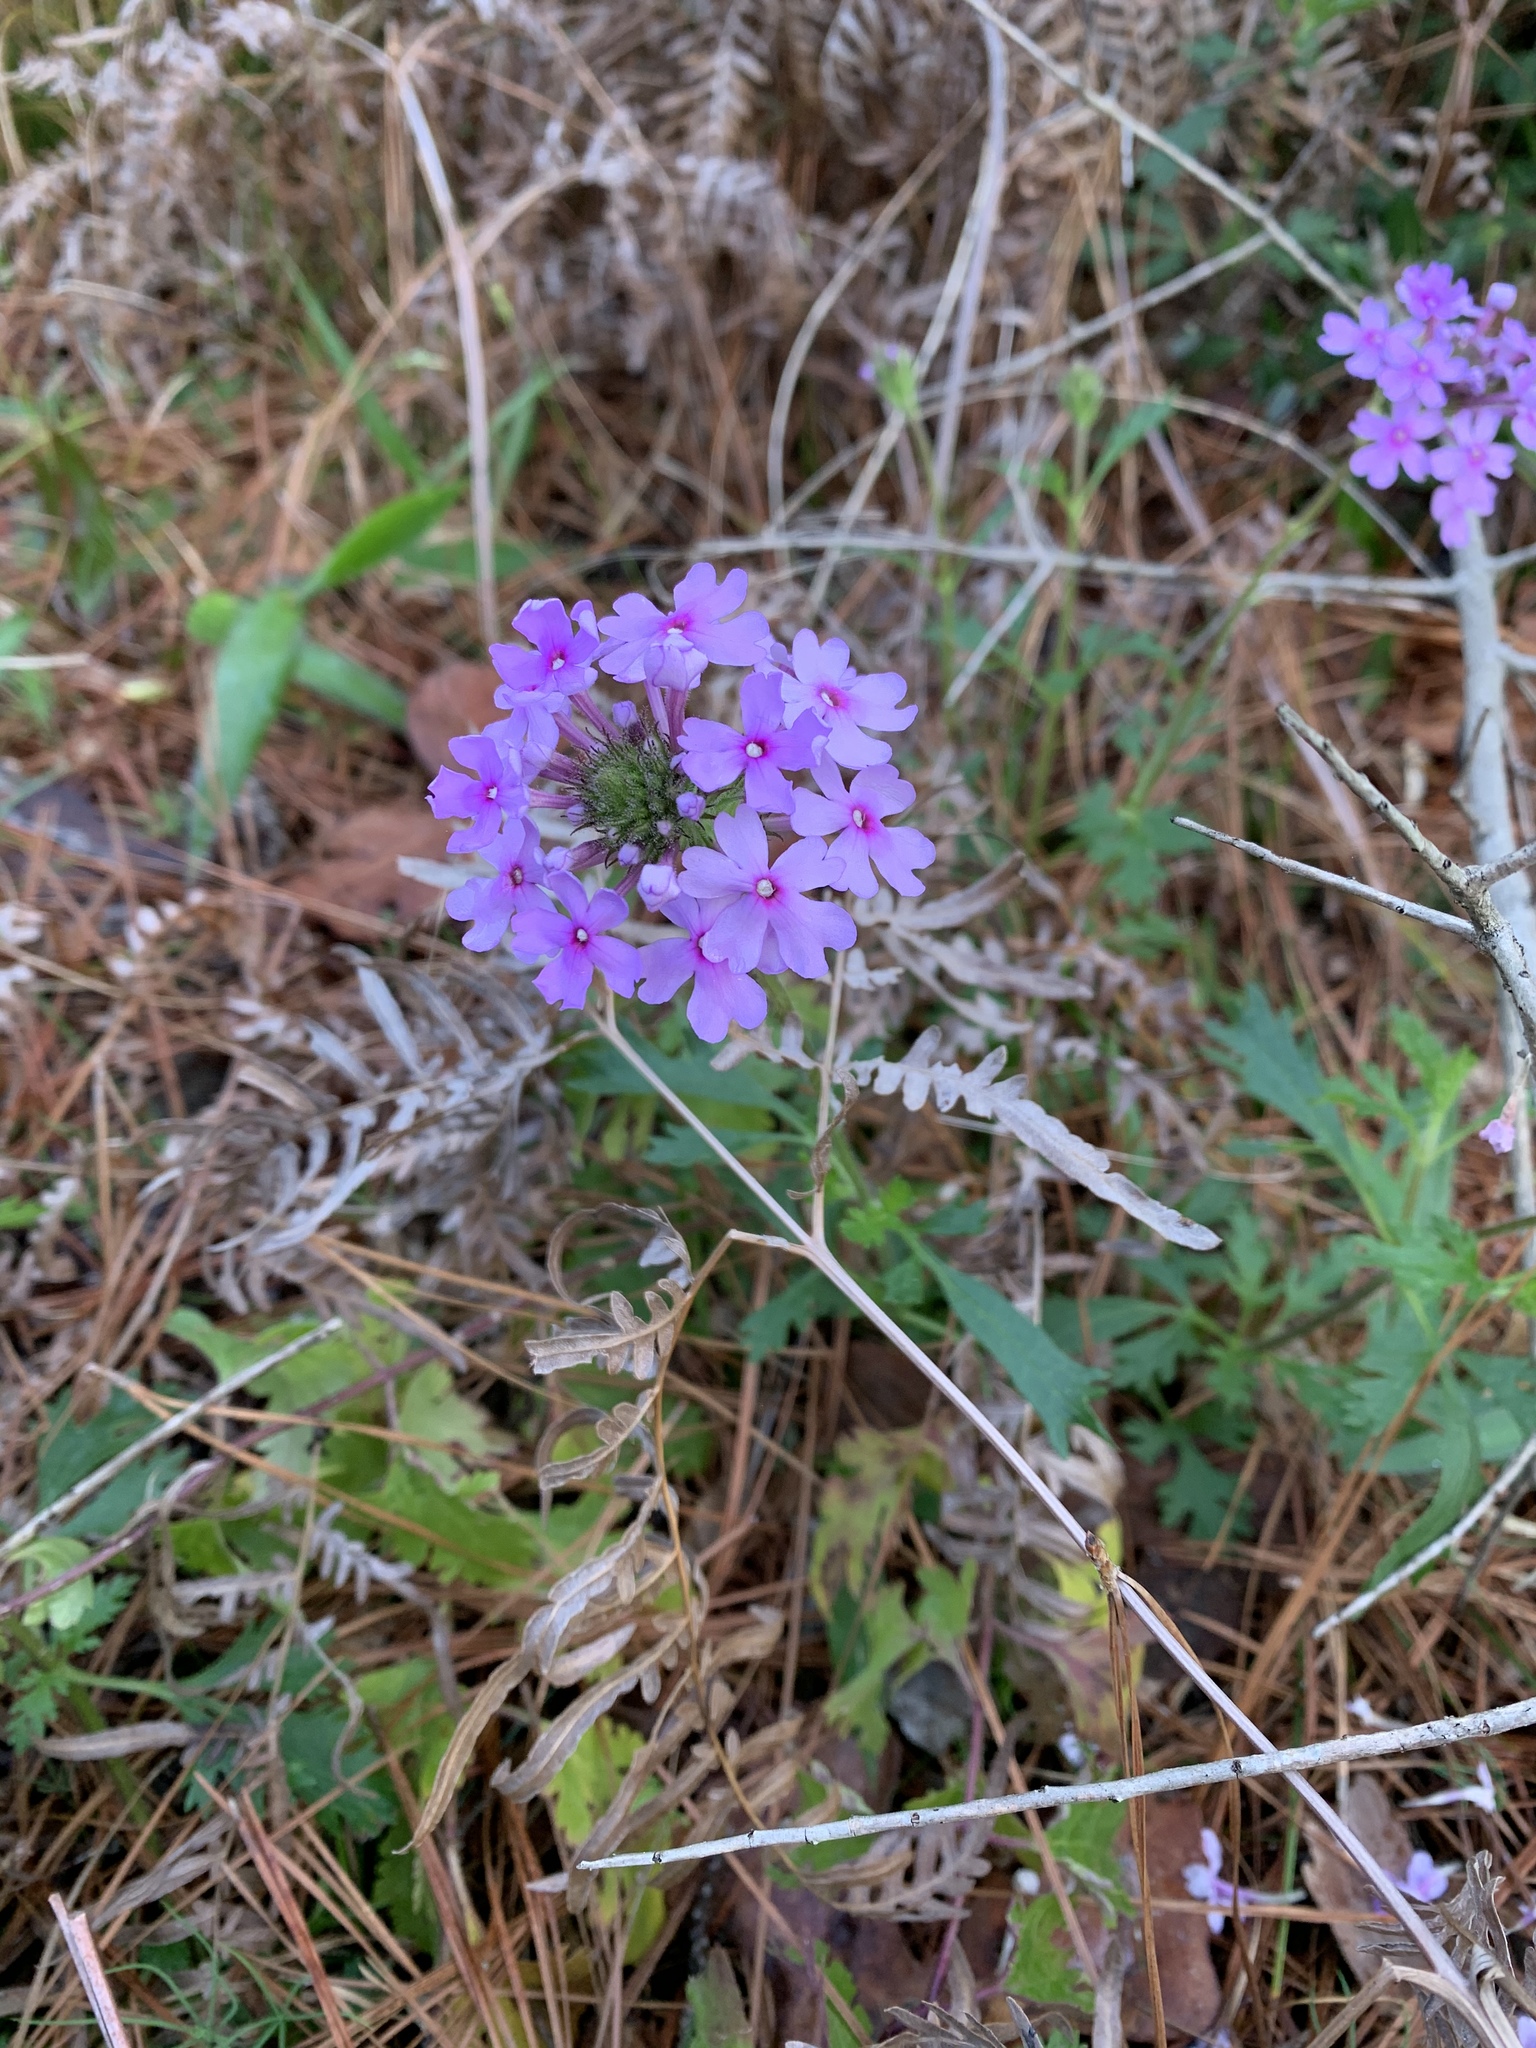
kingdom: Plantae
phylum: Tracheophyta
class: Magnoliopsida
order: Lamiales
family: Verbenaceae
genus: Verbena
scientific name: Verbena canadensis
